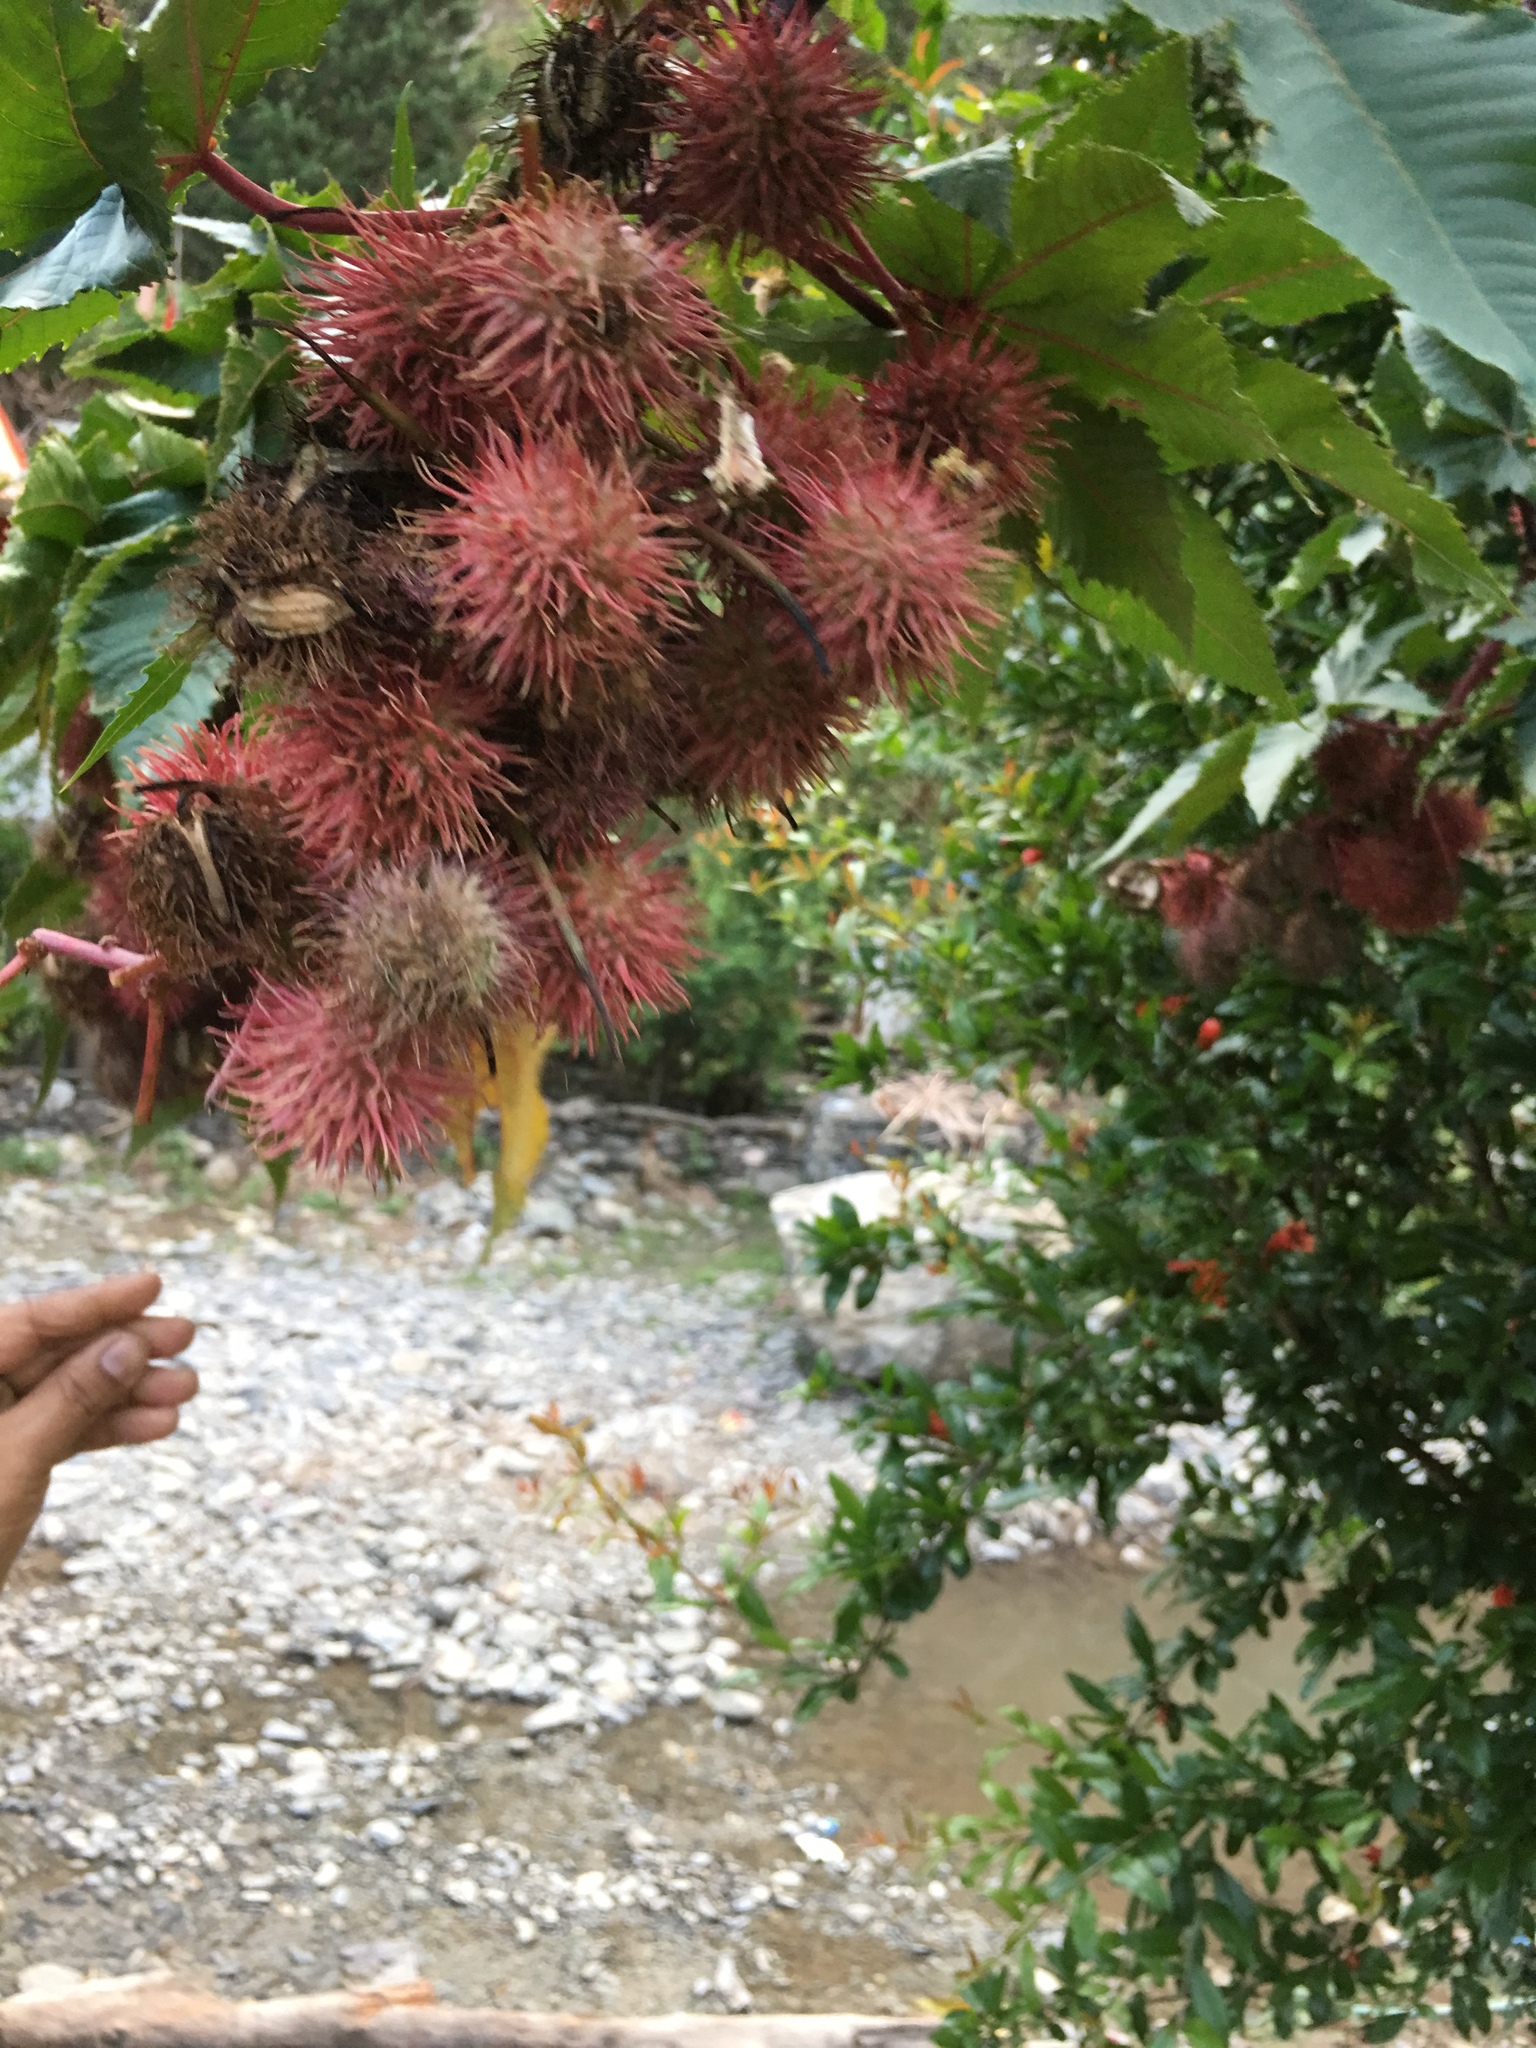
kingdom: Plantae
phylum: Tracheophyta
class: Magnoliopsida
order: Malpighiales
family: Euphorbiaceae
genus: Ricinus
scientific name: Ricinus communis
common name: Castor-oil-plant
